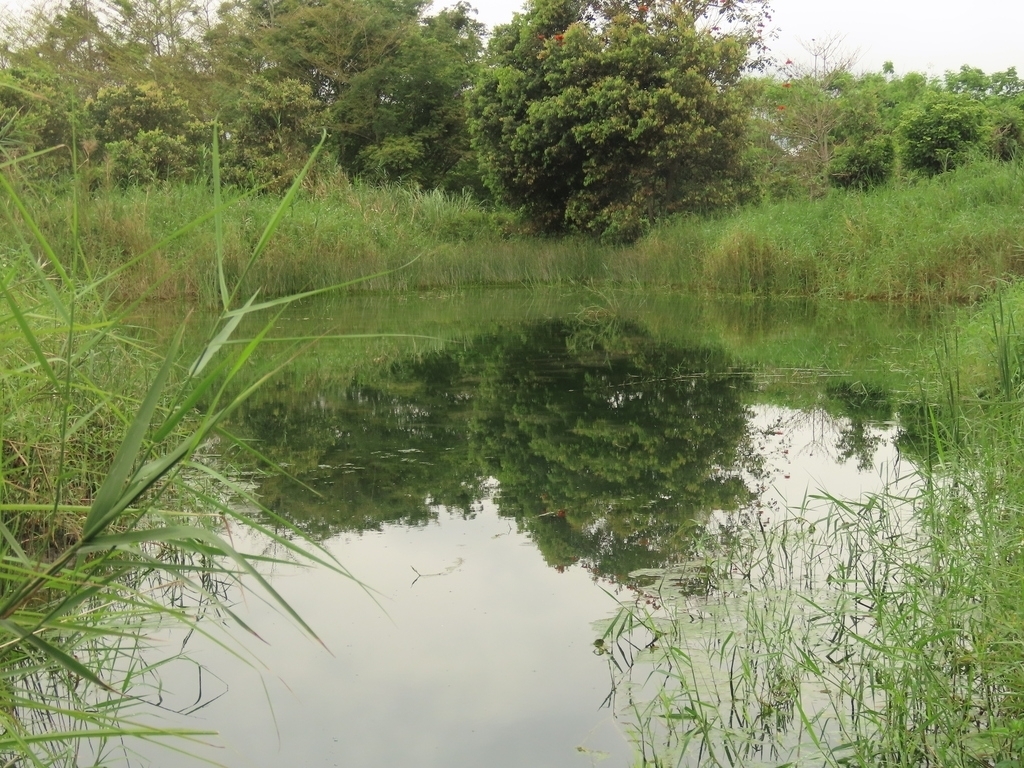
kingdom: Plantae
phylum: Tracheophyta
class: Liliopsida
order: Alismatales
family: Potamogetonaceae
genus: Potamogeton
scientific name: Potamogeton crispus
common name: Curled pondweed
